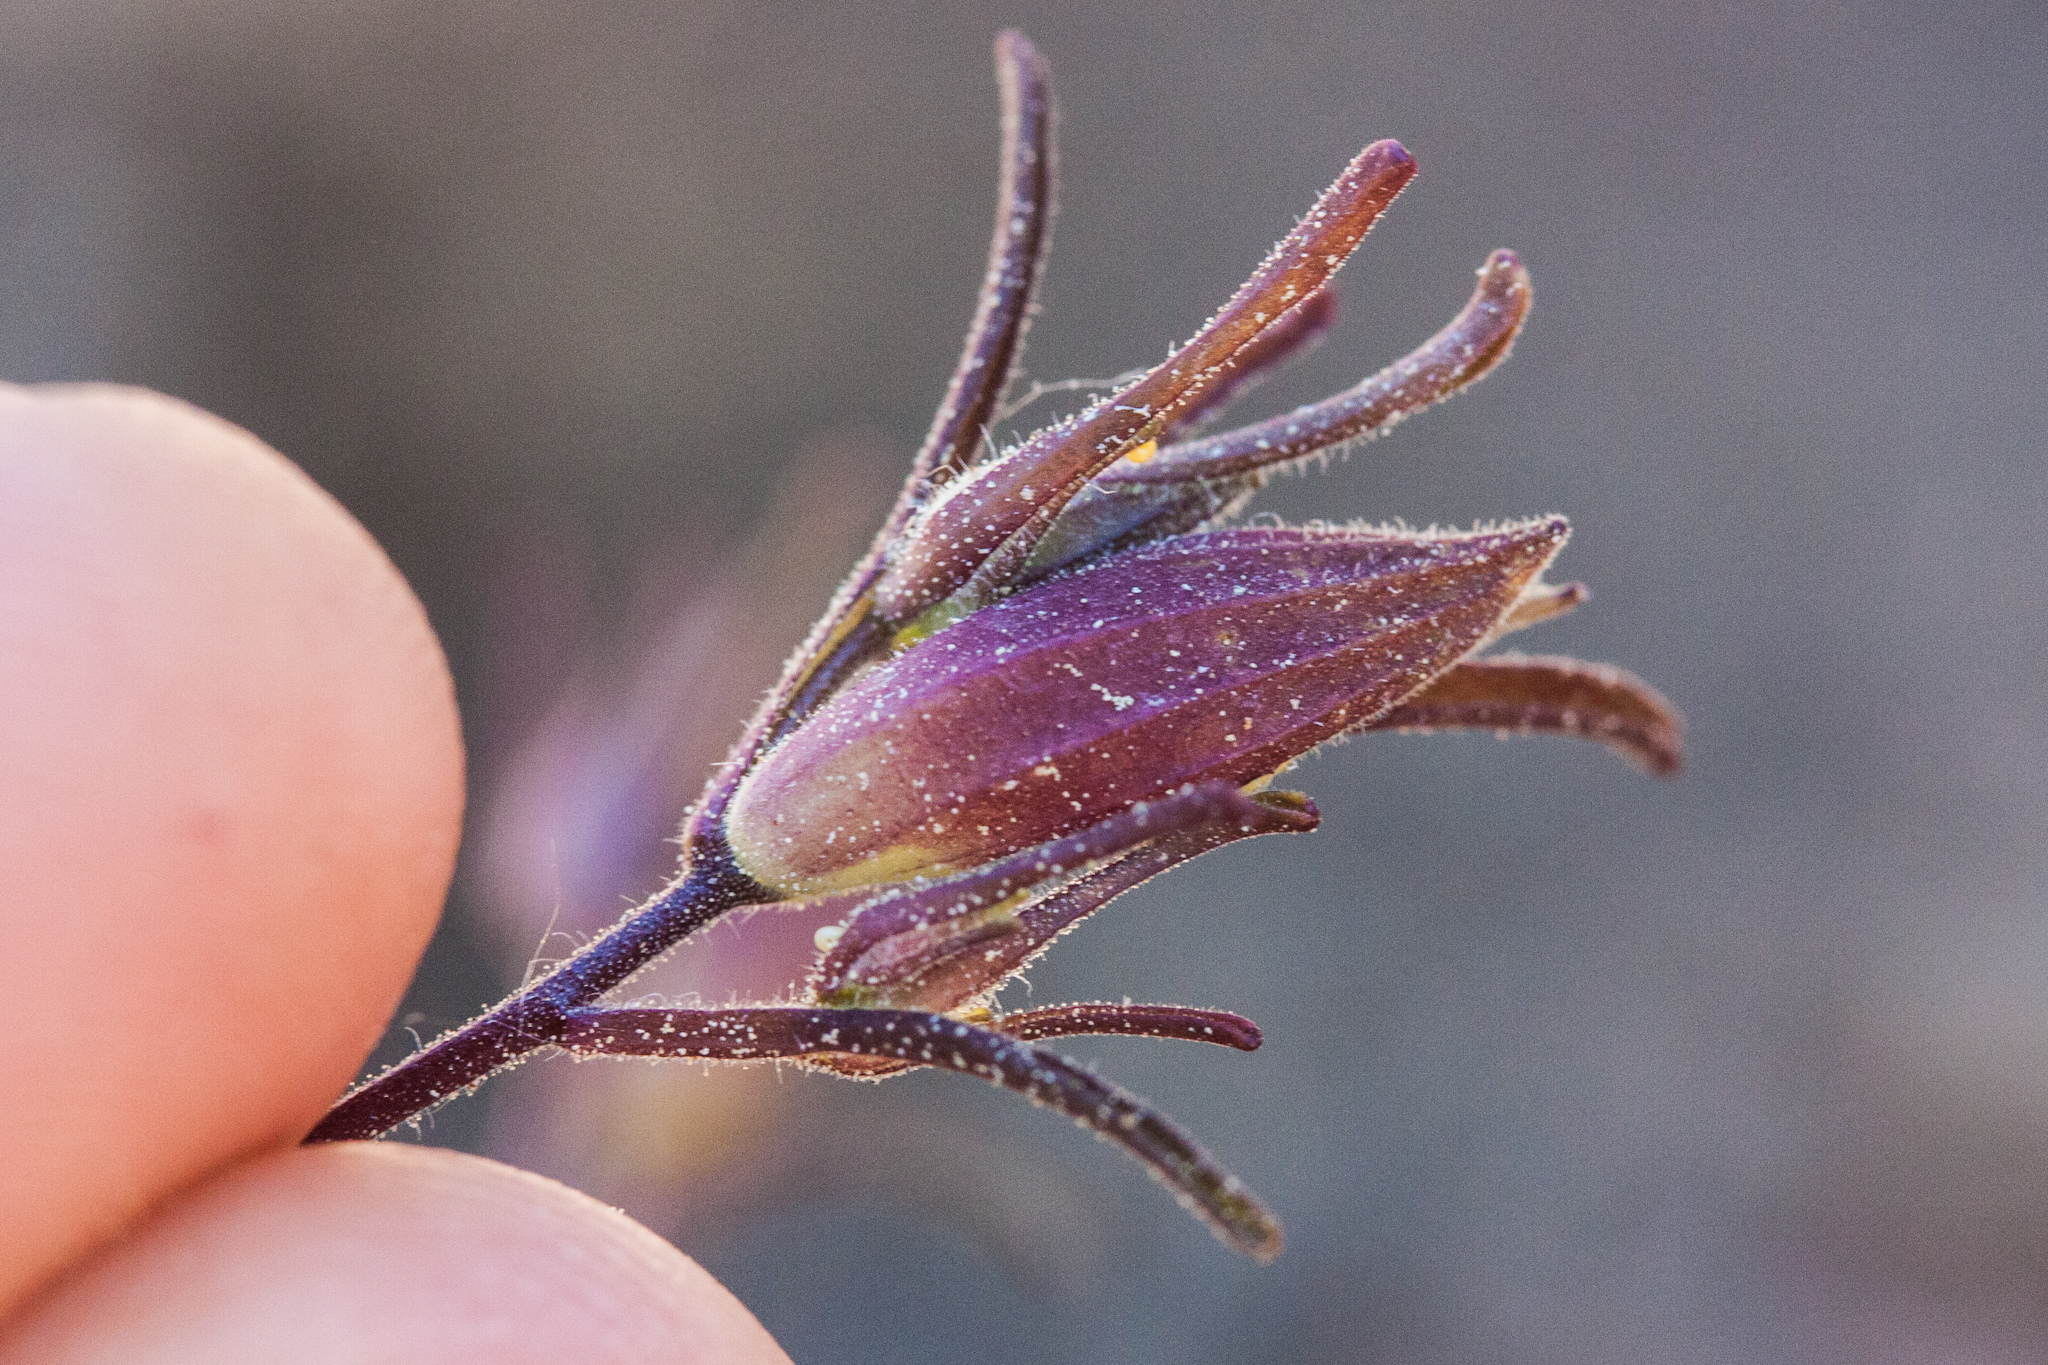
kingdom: Plantae
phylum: Tracheophyta
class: Magnoliopsida
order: Lamiales
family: Orobanchaceae
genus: Cordylanthus
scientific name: Cordylanthus tenuis
